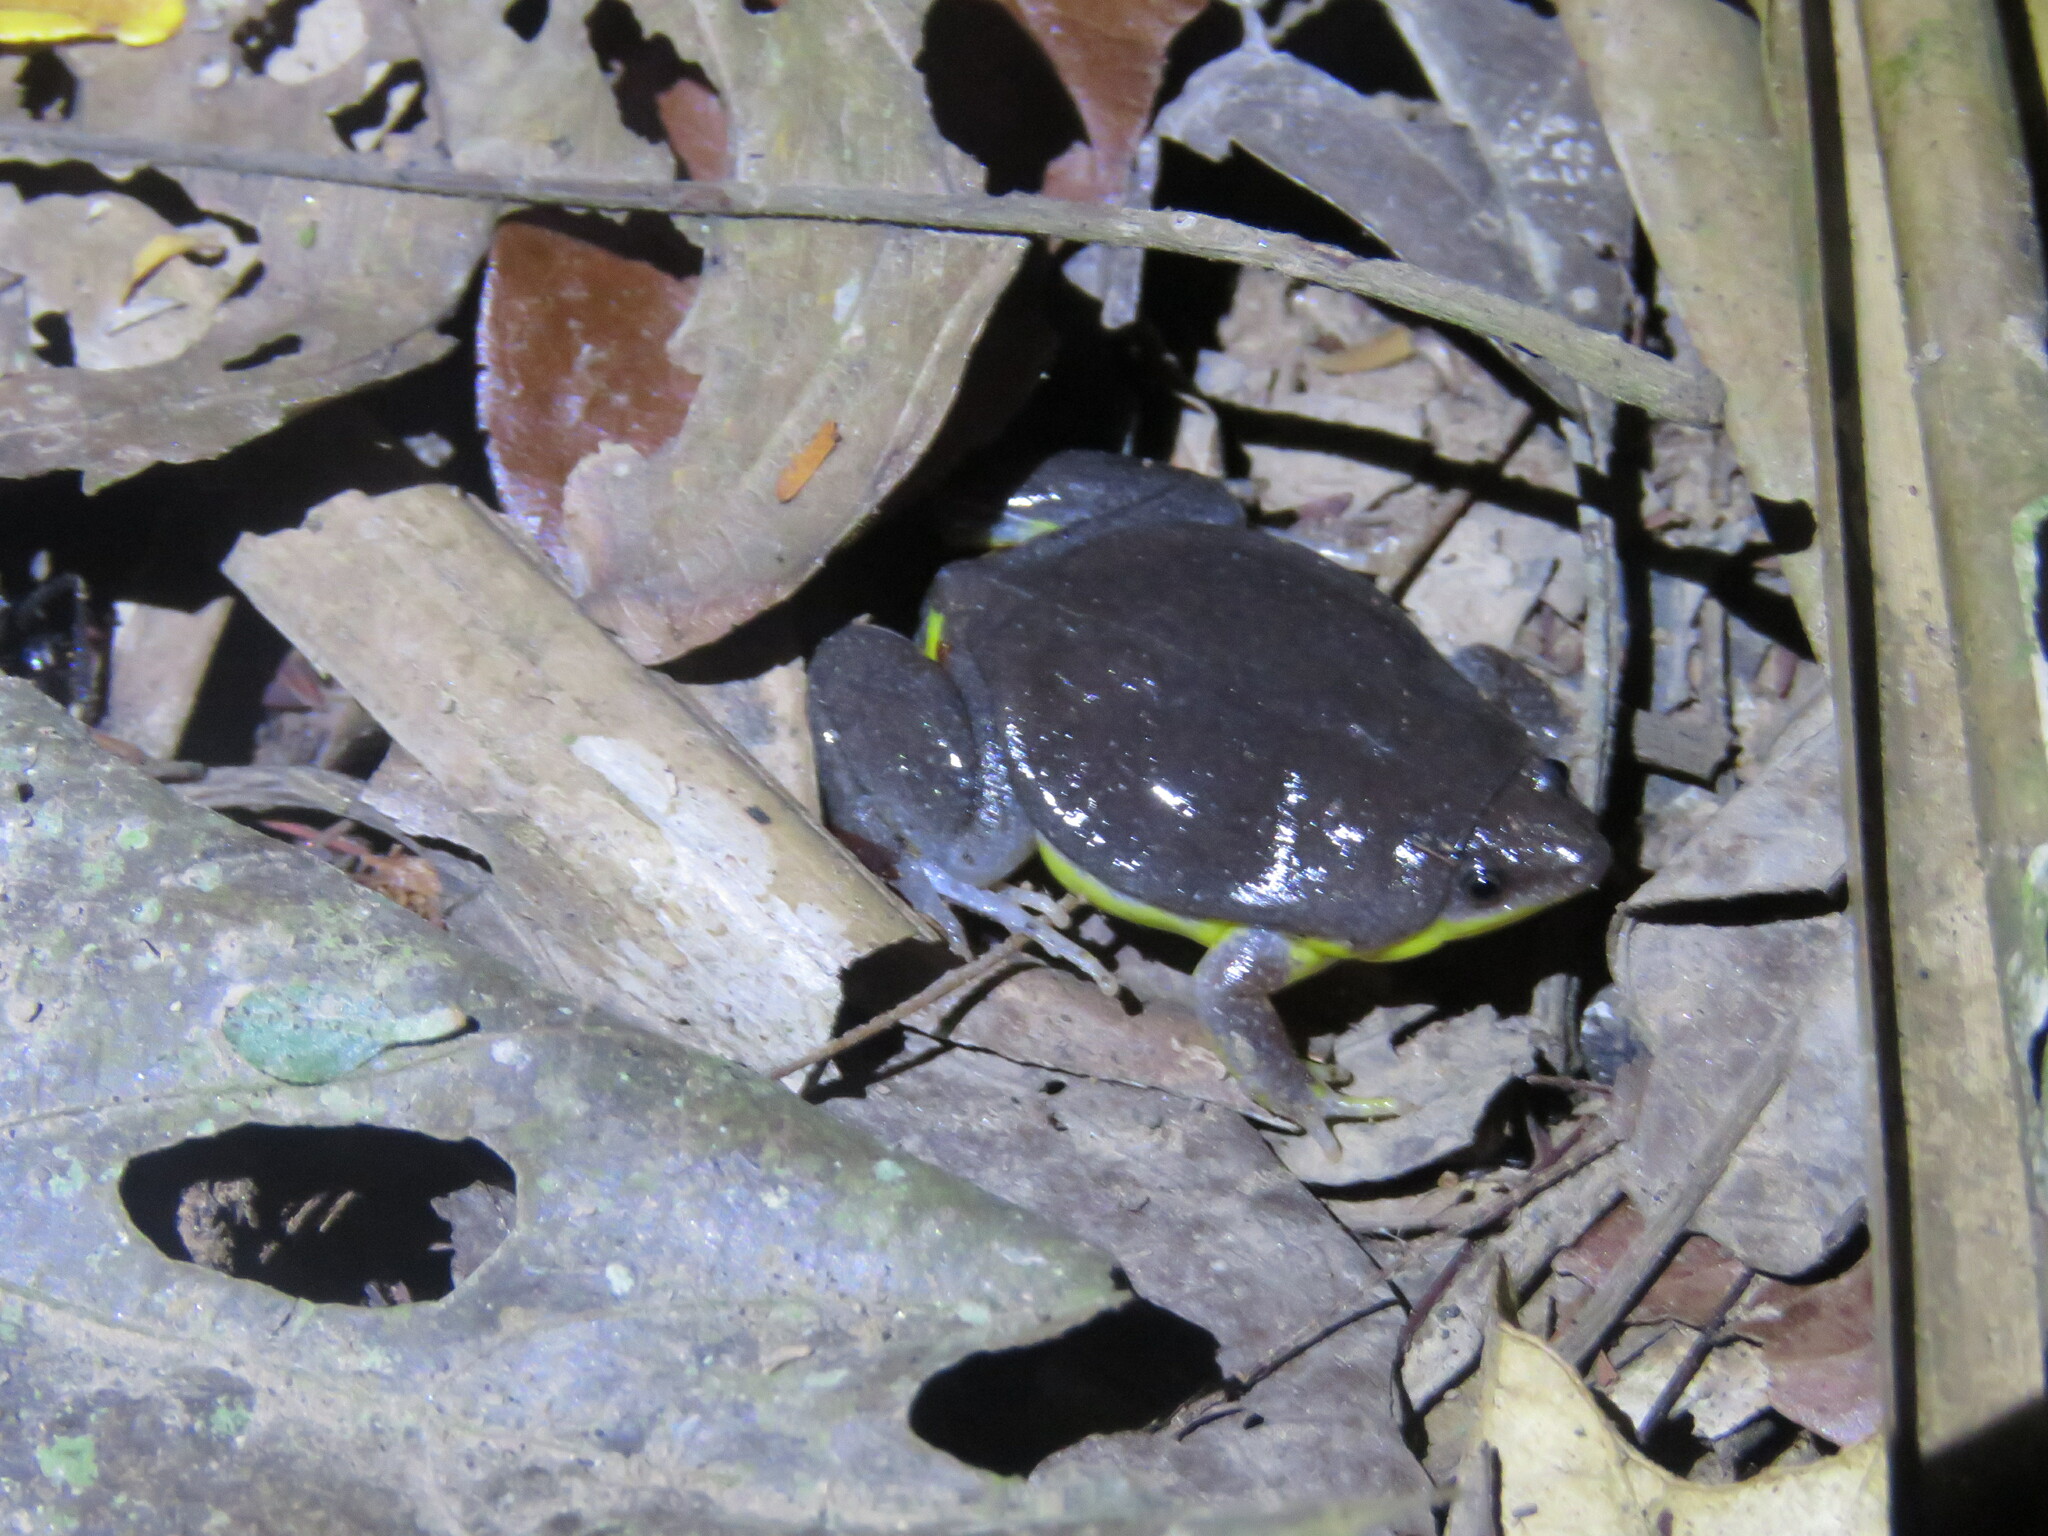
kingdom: Animalia
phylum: Chordata
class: Amphibia
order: Anura
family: Microhylidae
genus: Elachistocleis
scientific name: Elachistocleis bicolor
